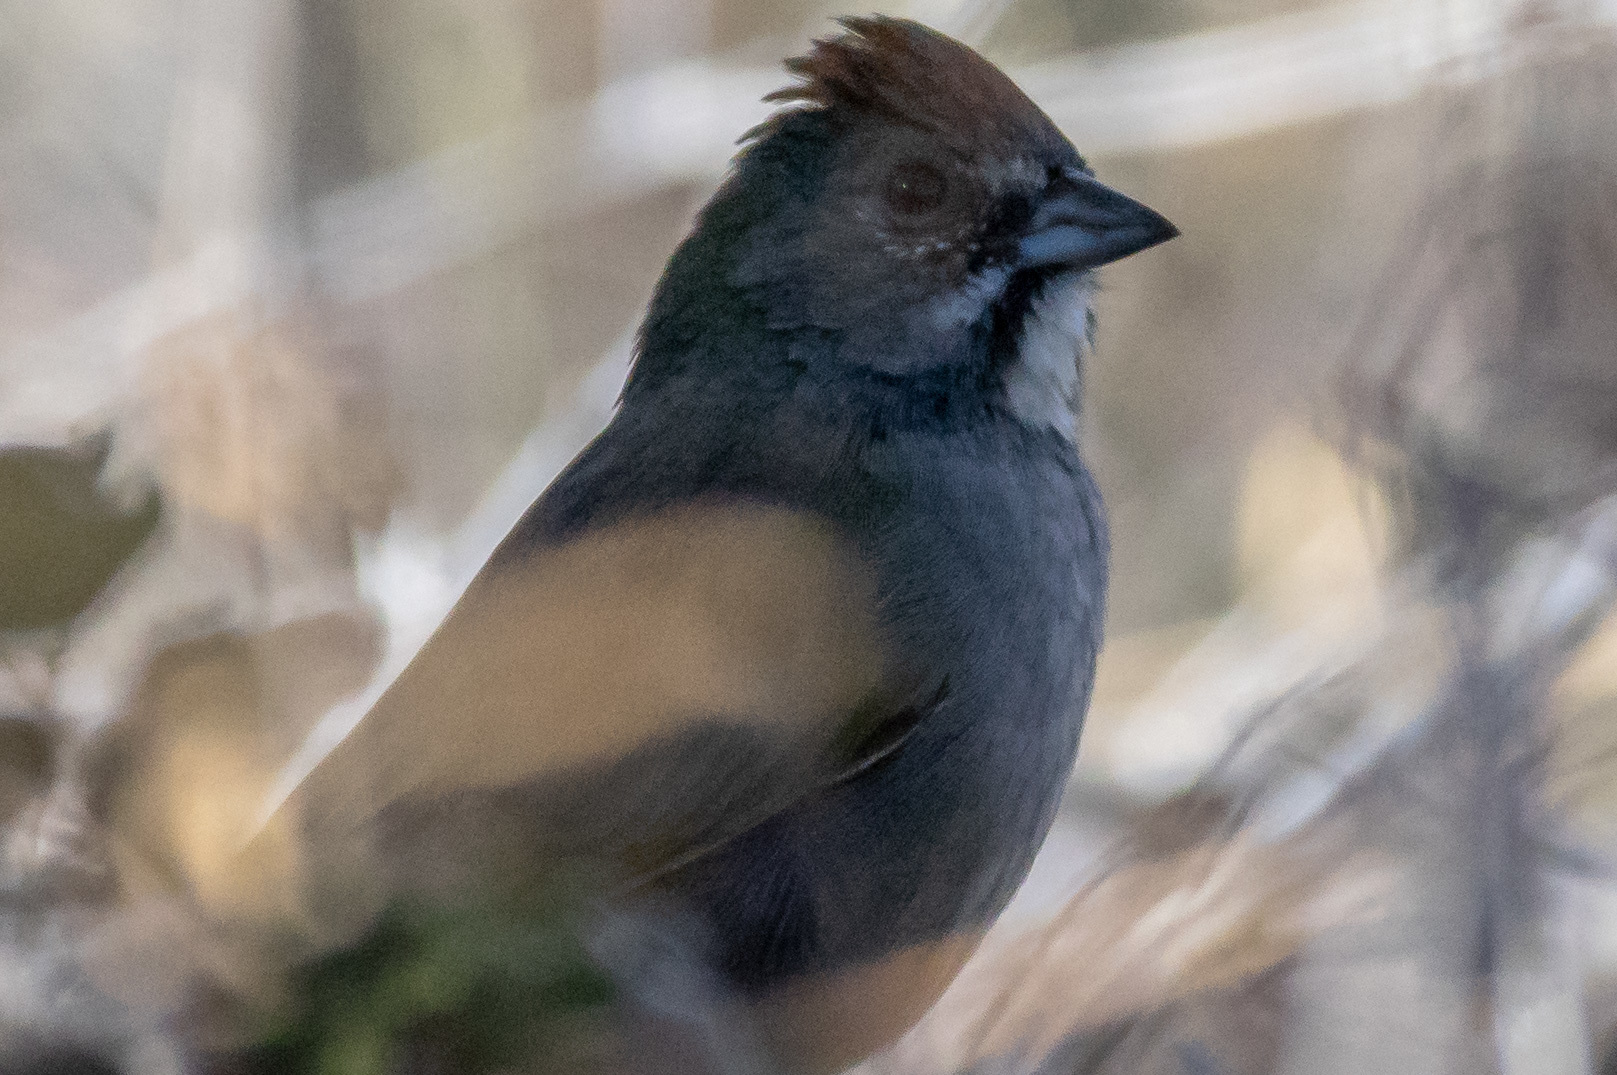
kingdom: Animalia
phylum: Chordata
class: Aves
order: Passeriformes
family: Passerellidae
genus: Pipilo
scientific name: Pipilo chlorurus
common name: Green-tailed towhee
